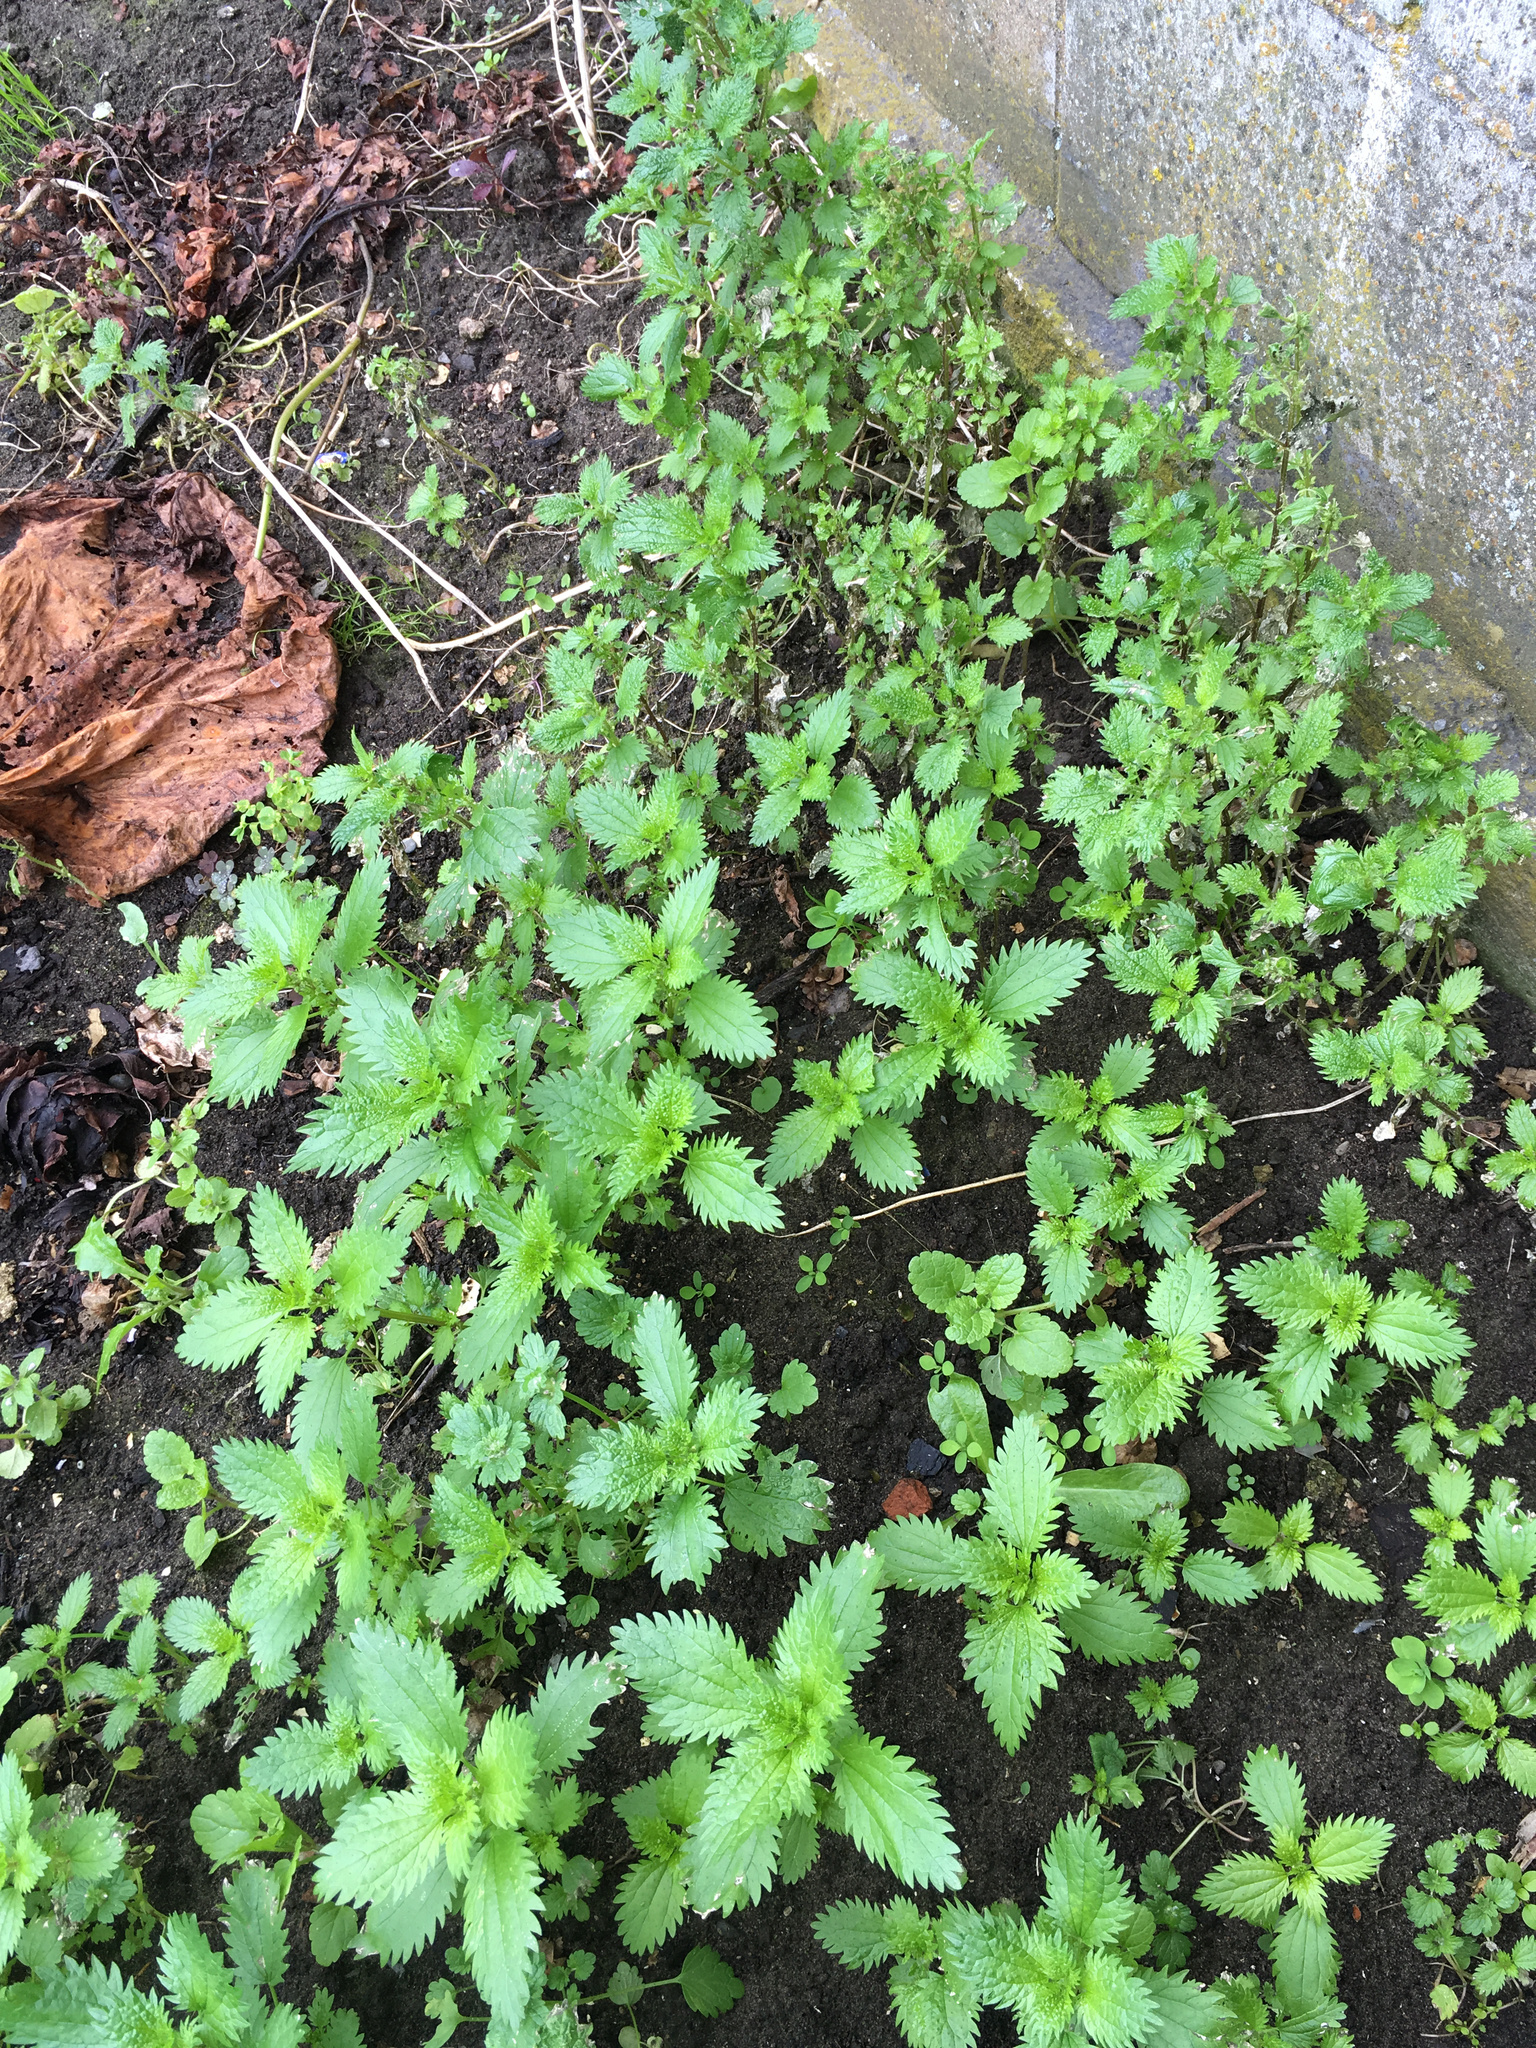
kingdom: Plantae
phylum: Tracheophyta
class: Magnoliopsida
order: Rosales
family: Urticaceae
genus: Urtica
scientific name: Urtica urens
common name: Dwarf nettle
